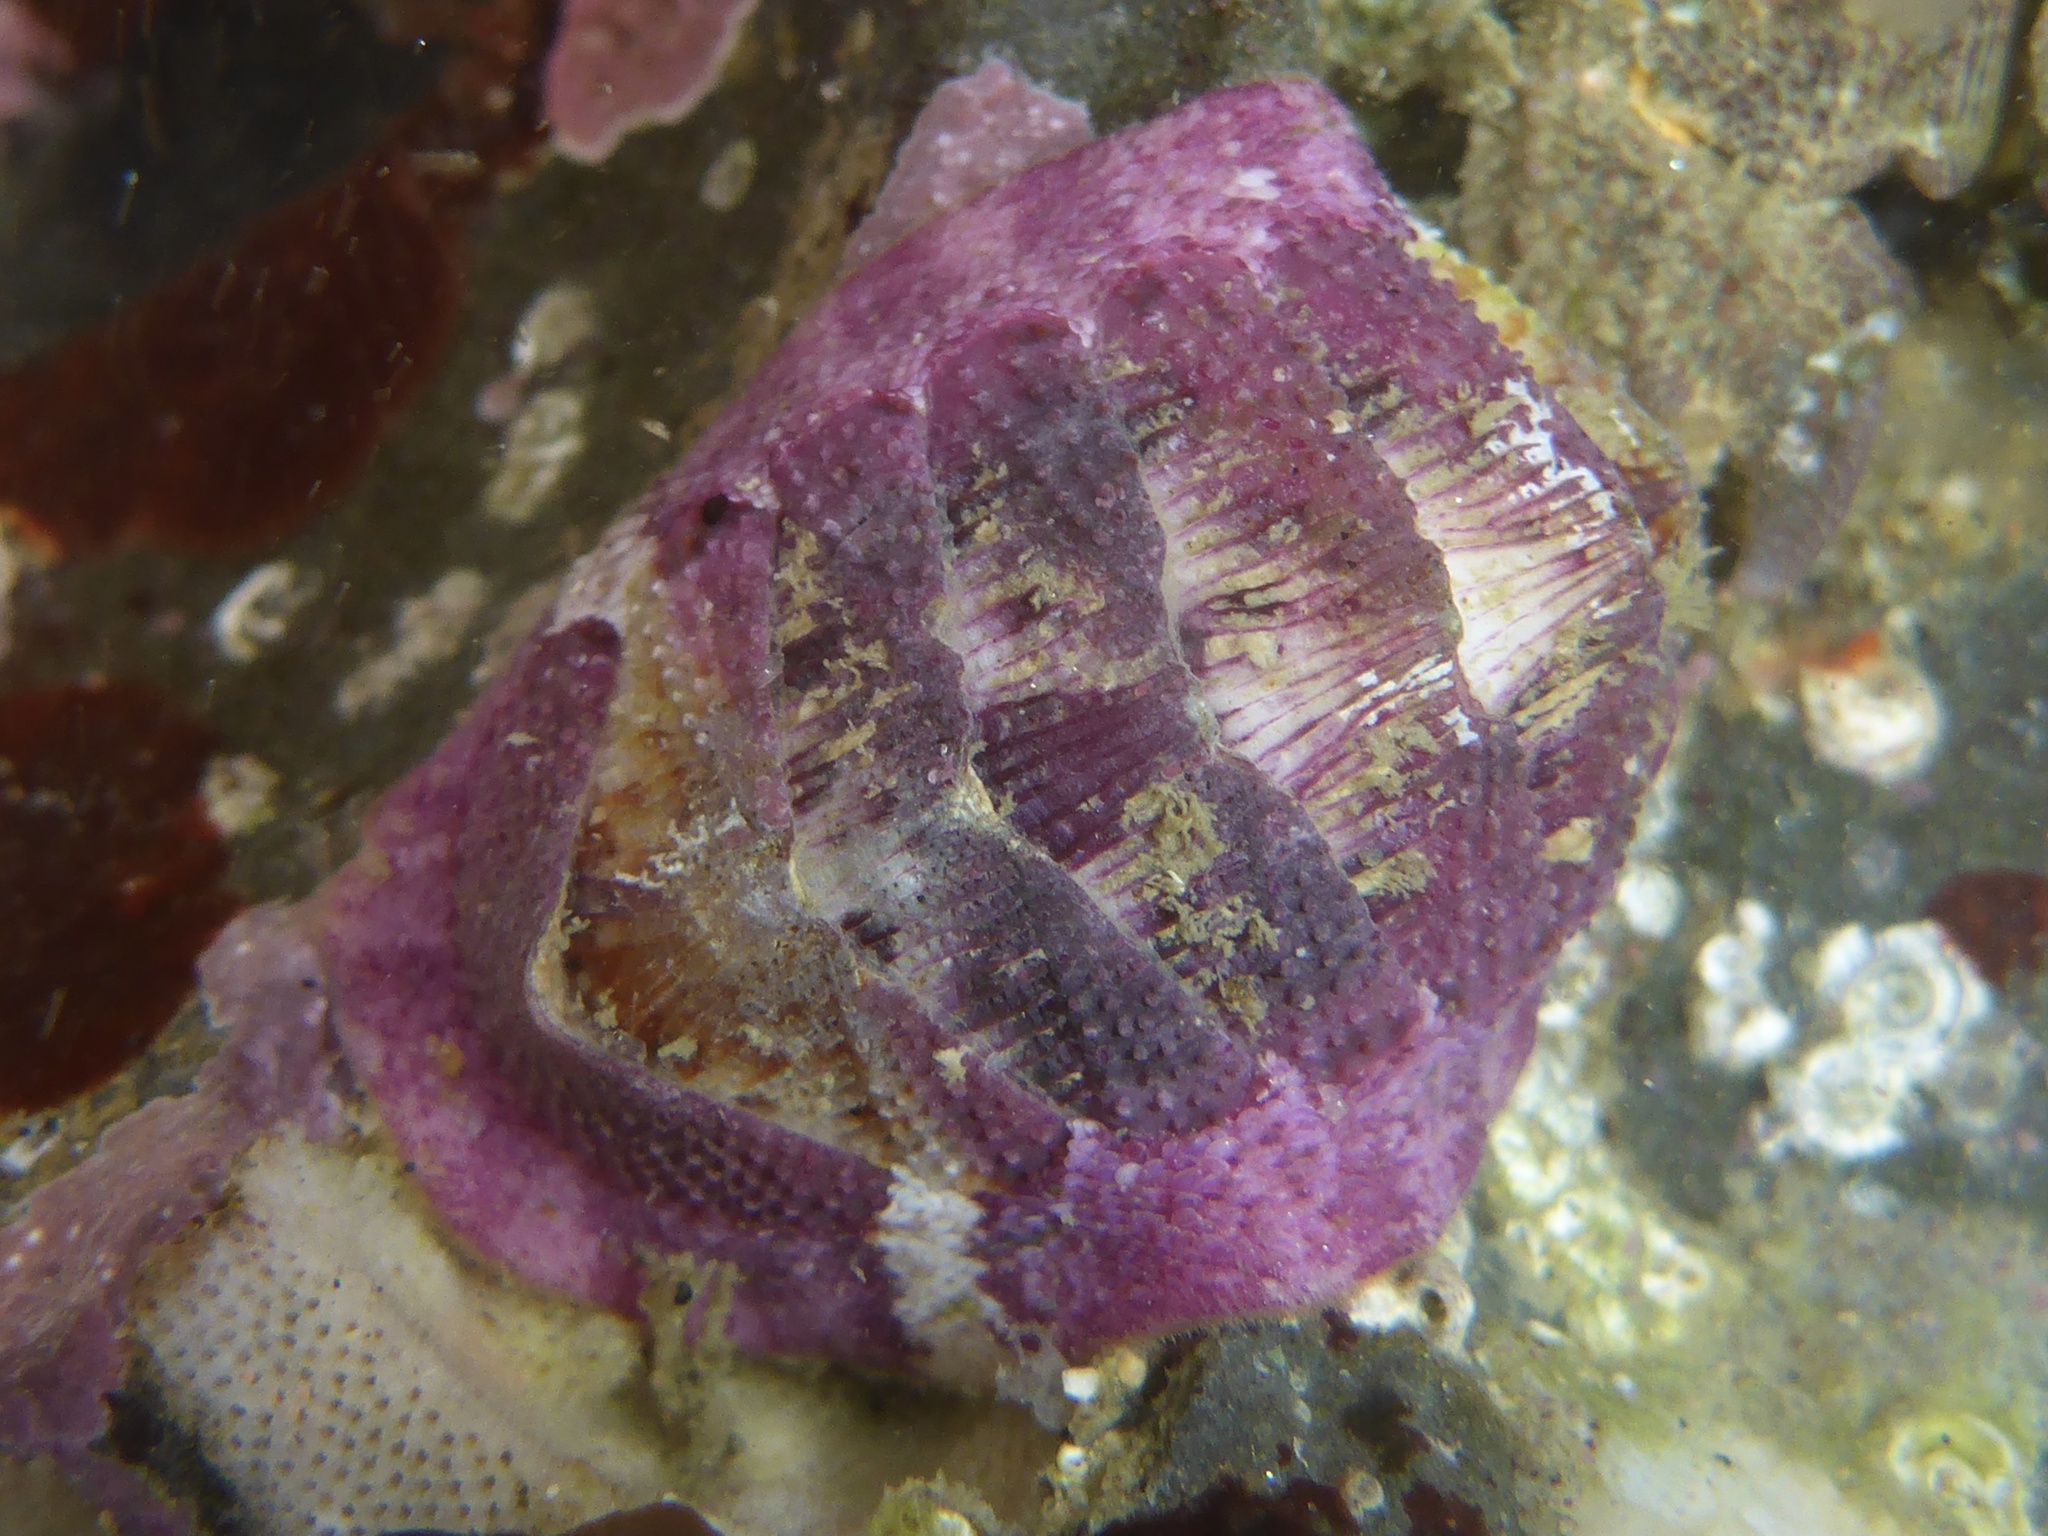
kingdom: Animalia
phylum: Mollusca
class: Polyplacophora
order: Chitonida
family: Ischnochitonidae
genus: Lepidozona
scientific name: Lepidozona mertensii
